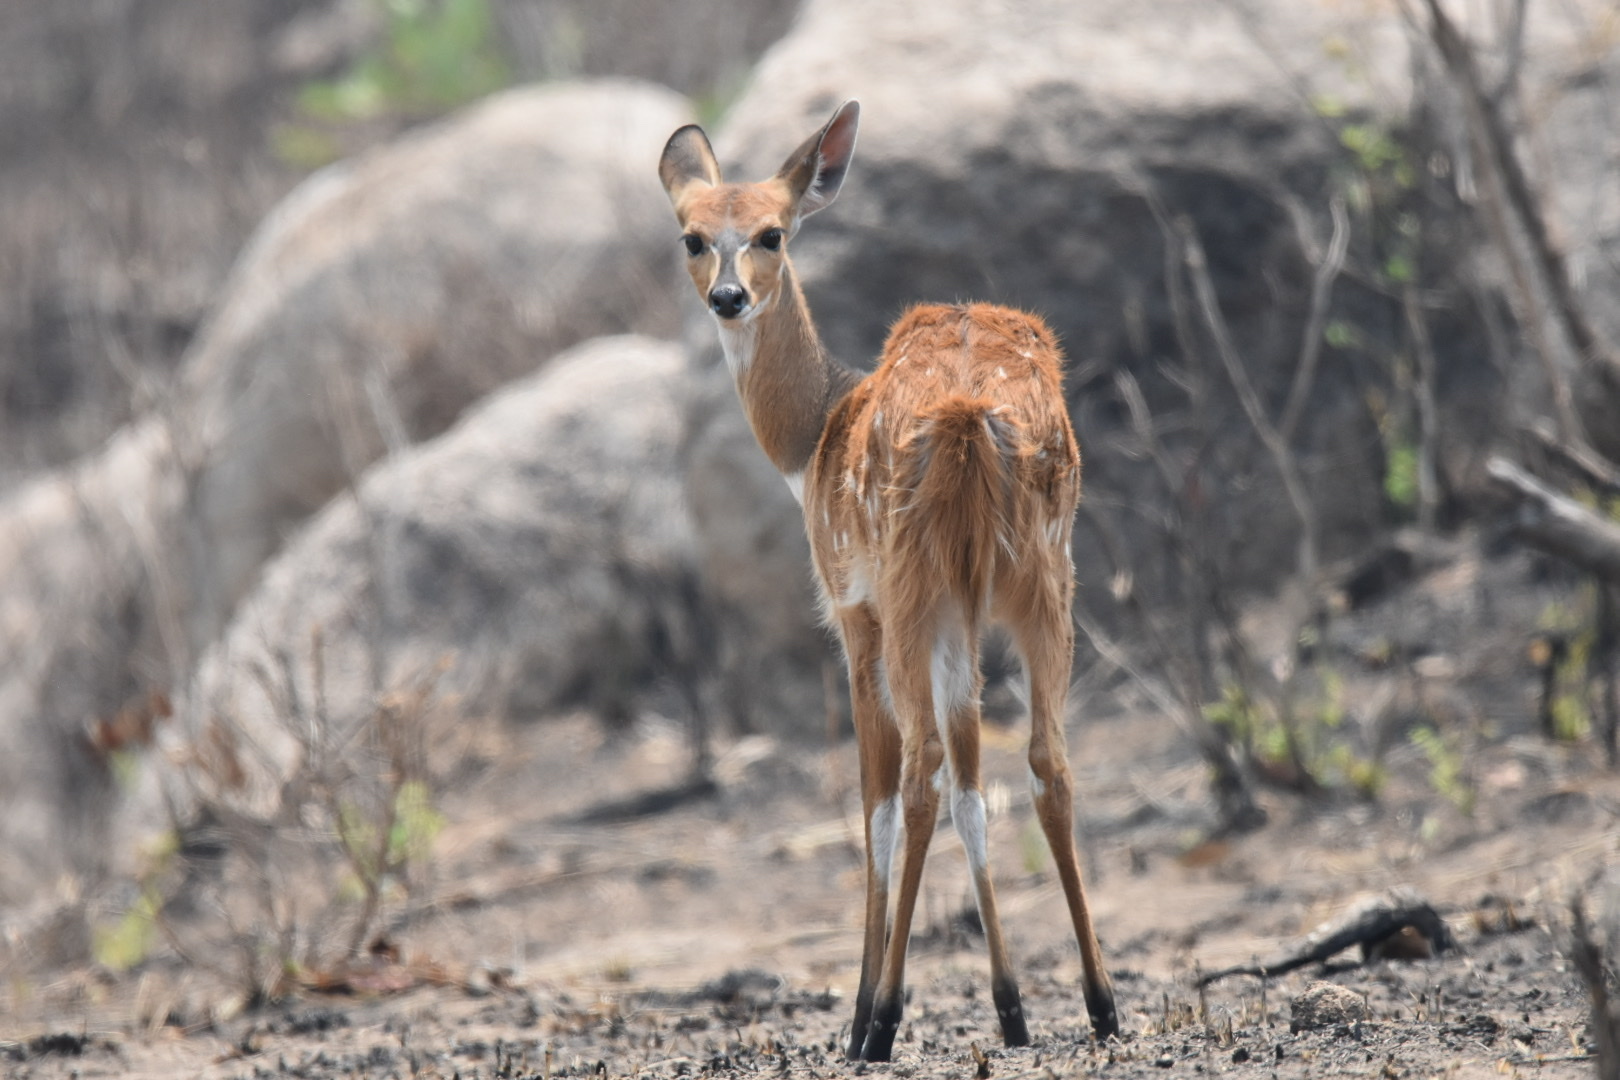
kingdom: Animalia
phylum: Chordata
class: Mammalia
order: Artiodactyla
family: Bovidae
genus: Tragelaphus
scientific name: Tragelaphus scriptus
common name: Bushbuck
